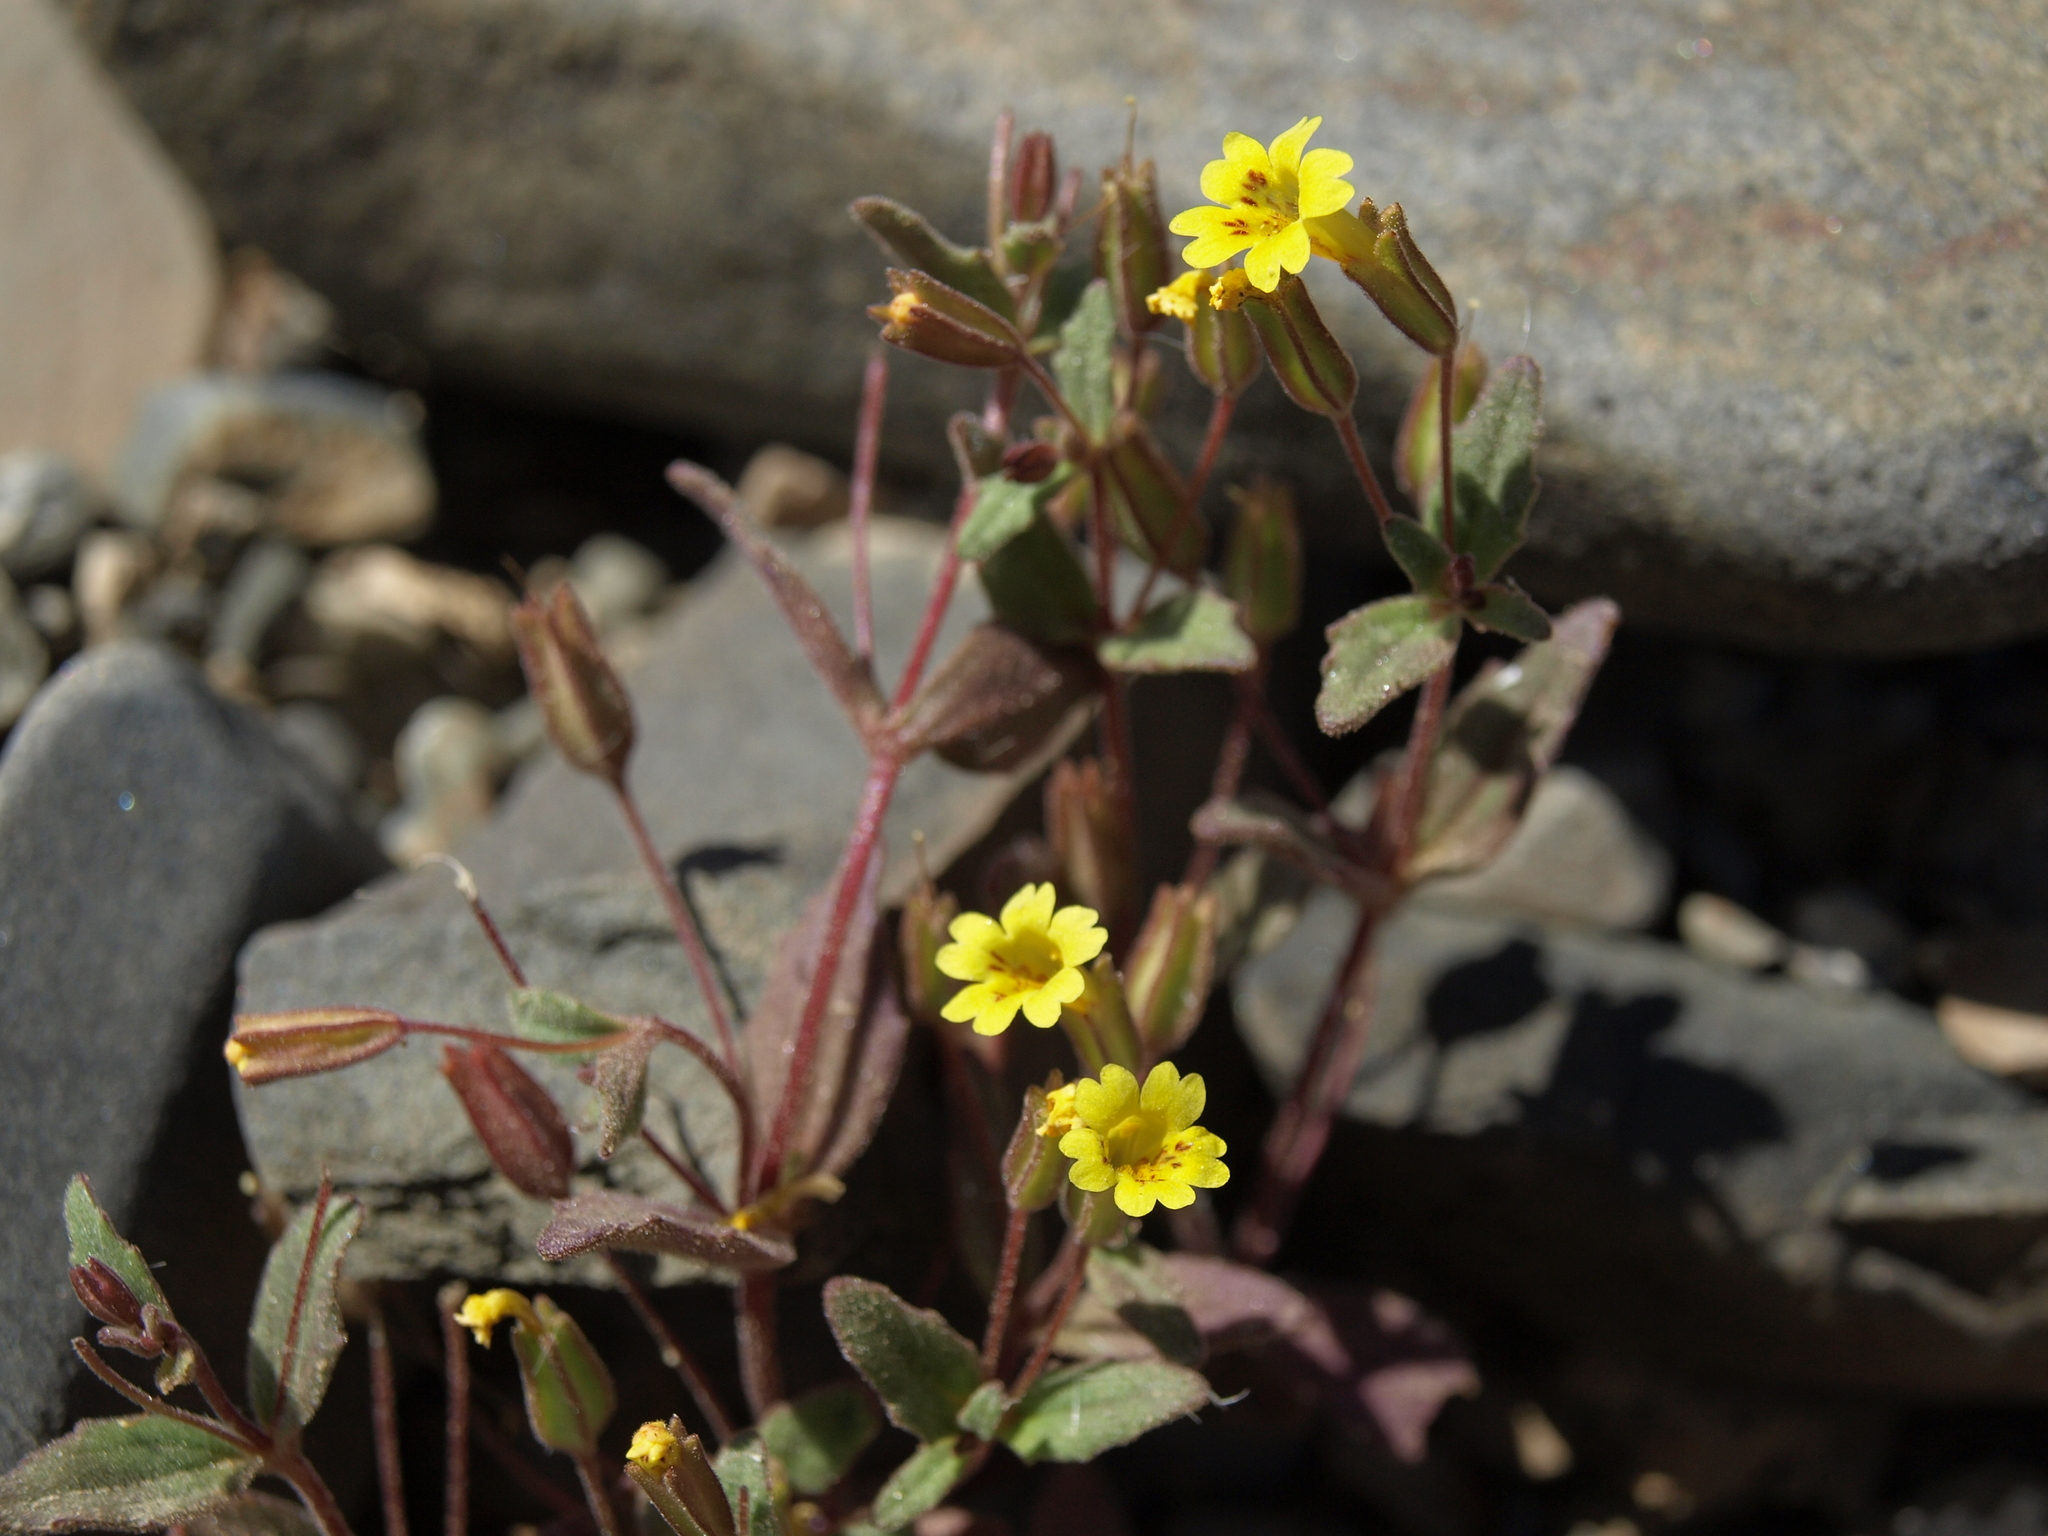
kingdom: Plantae
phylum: Tracheophyta
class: Magnoliopsida
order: Lamiales
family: Phrymaceae
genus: Erythranthe
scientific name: Erythranthe calcicola
